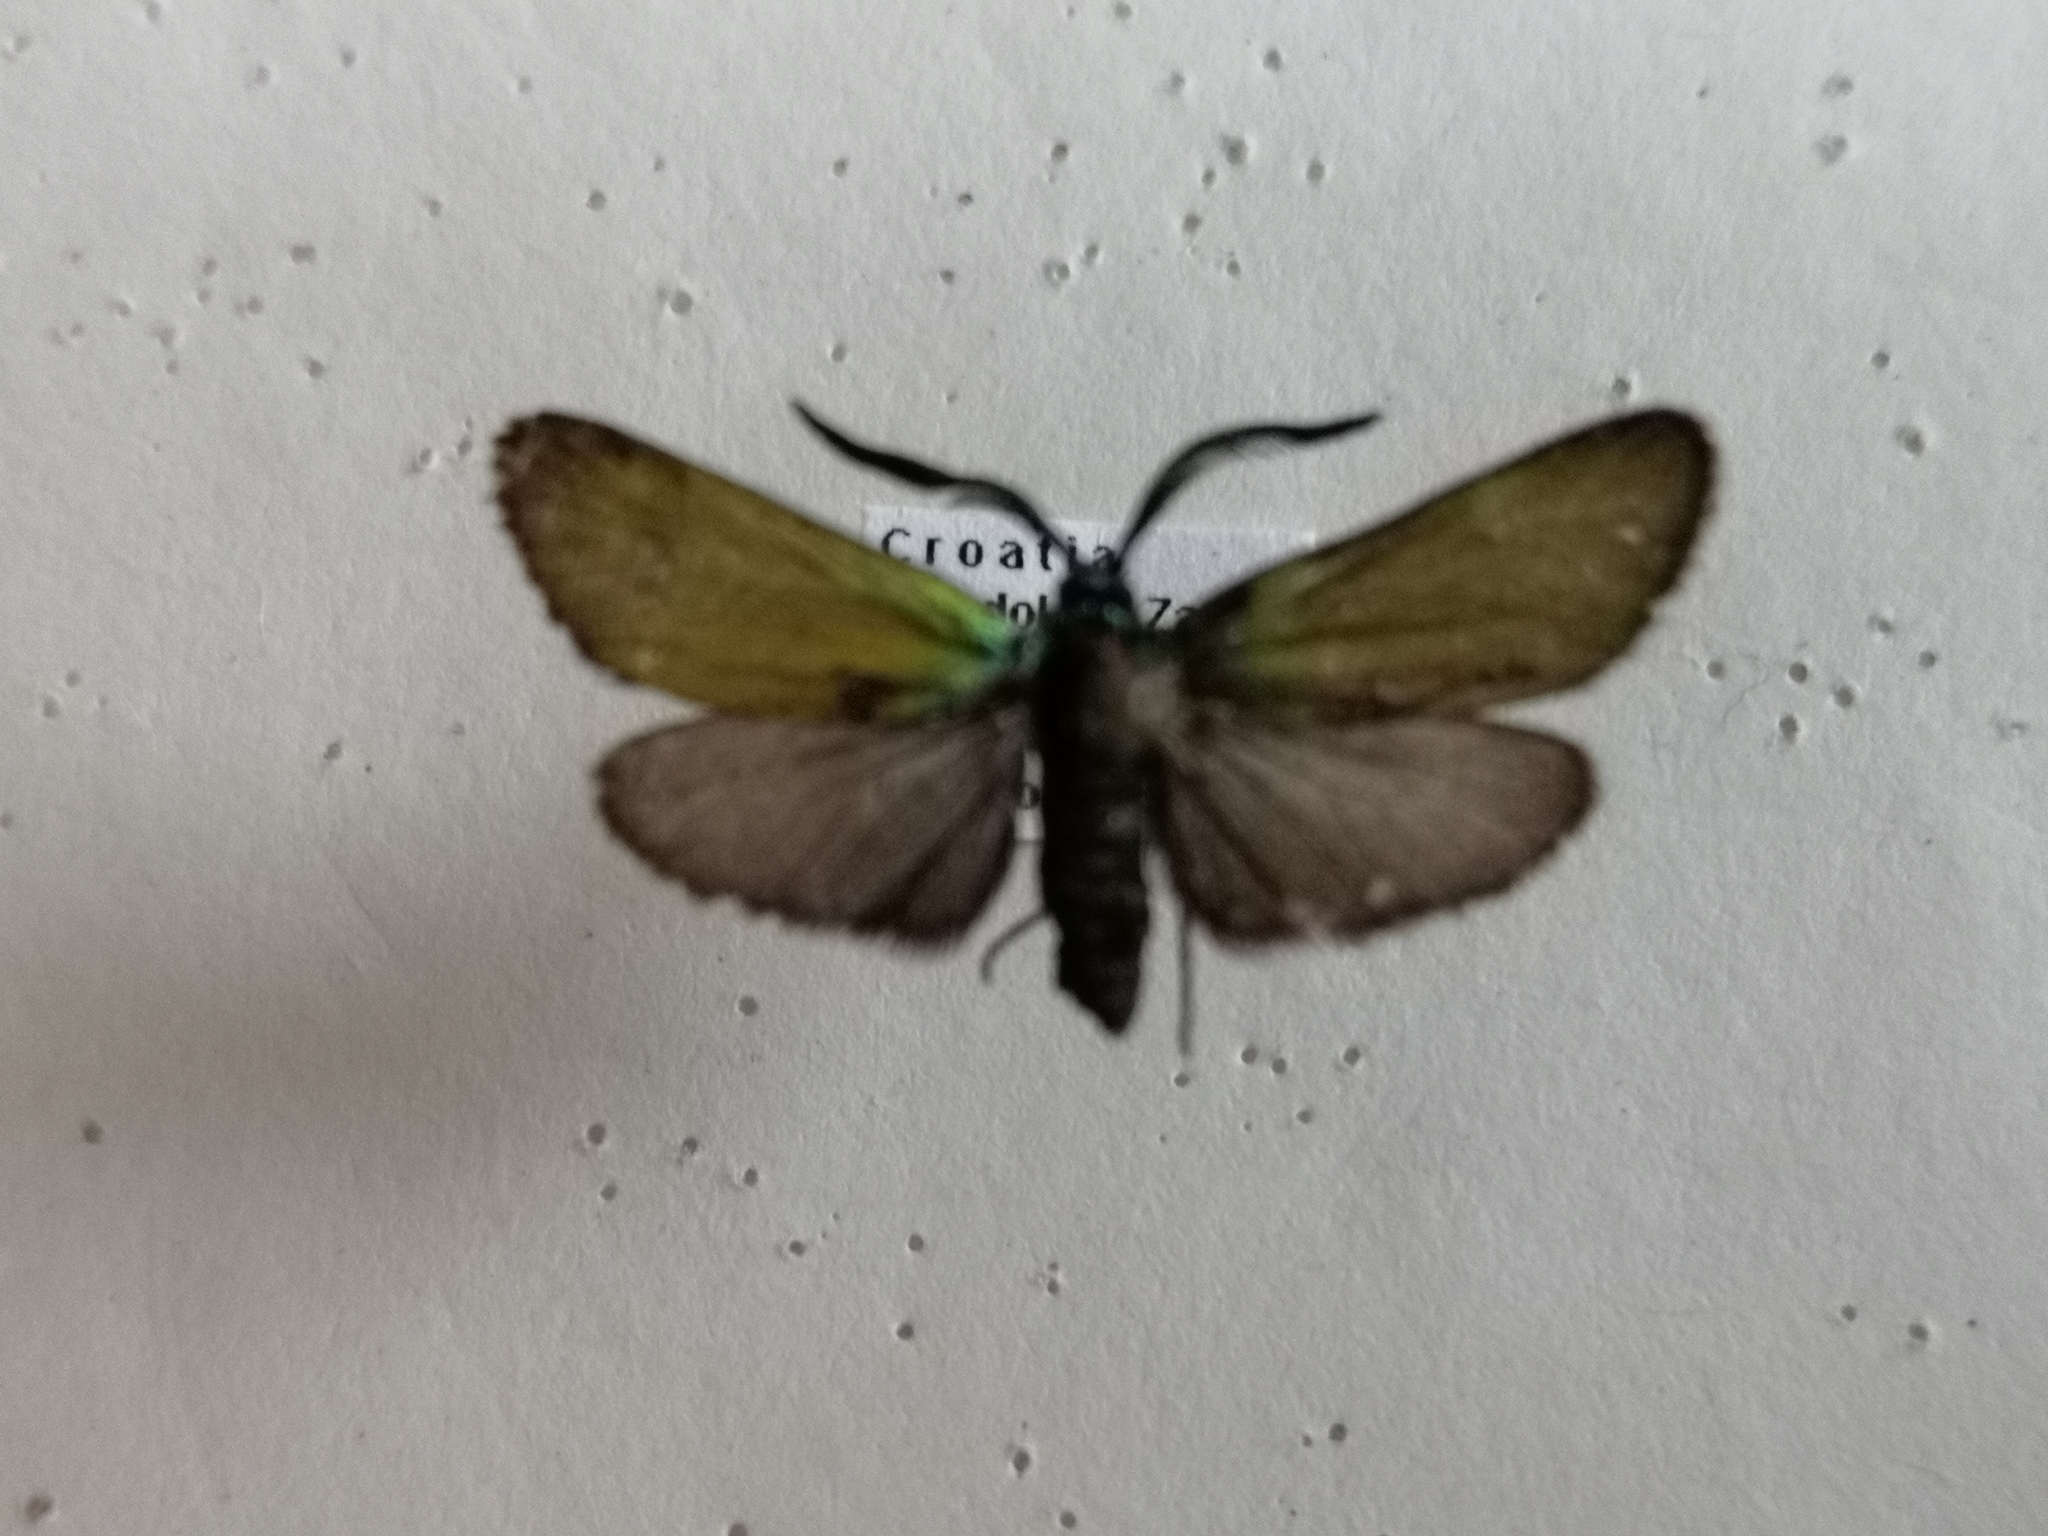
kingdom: Animalia
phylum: Arthropoda
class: Insecta
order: Lepidoptera
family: Zygaenidae
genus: Jordanita
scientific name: Jordanita chloros
